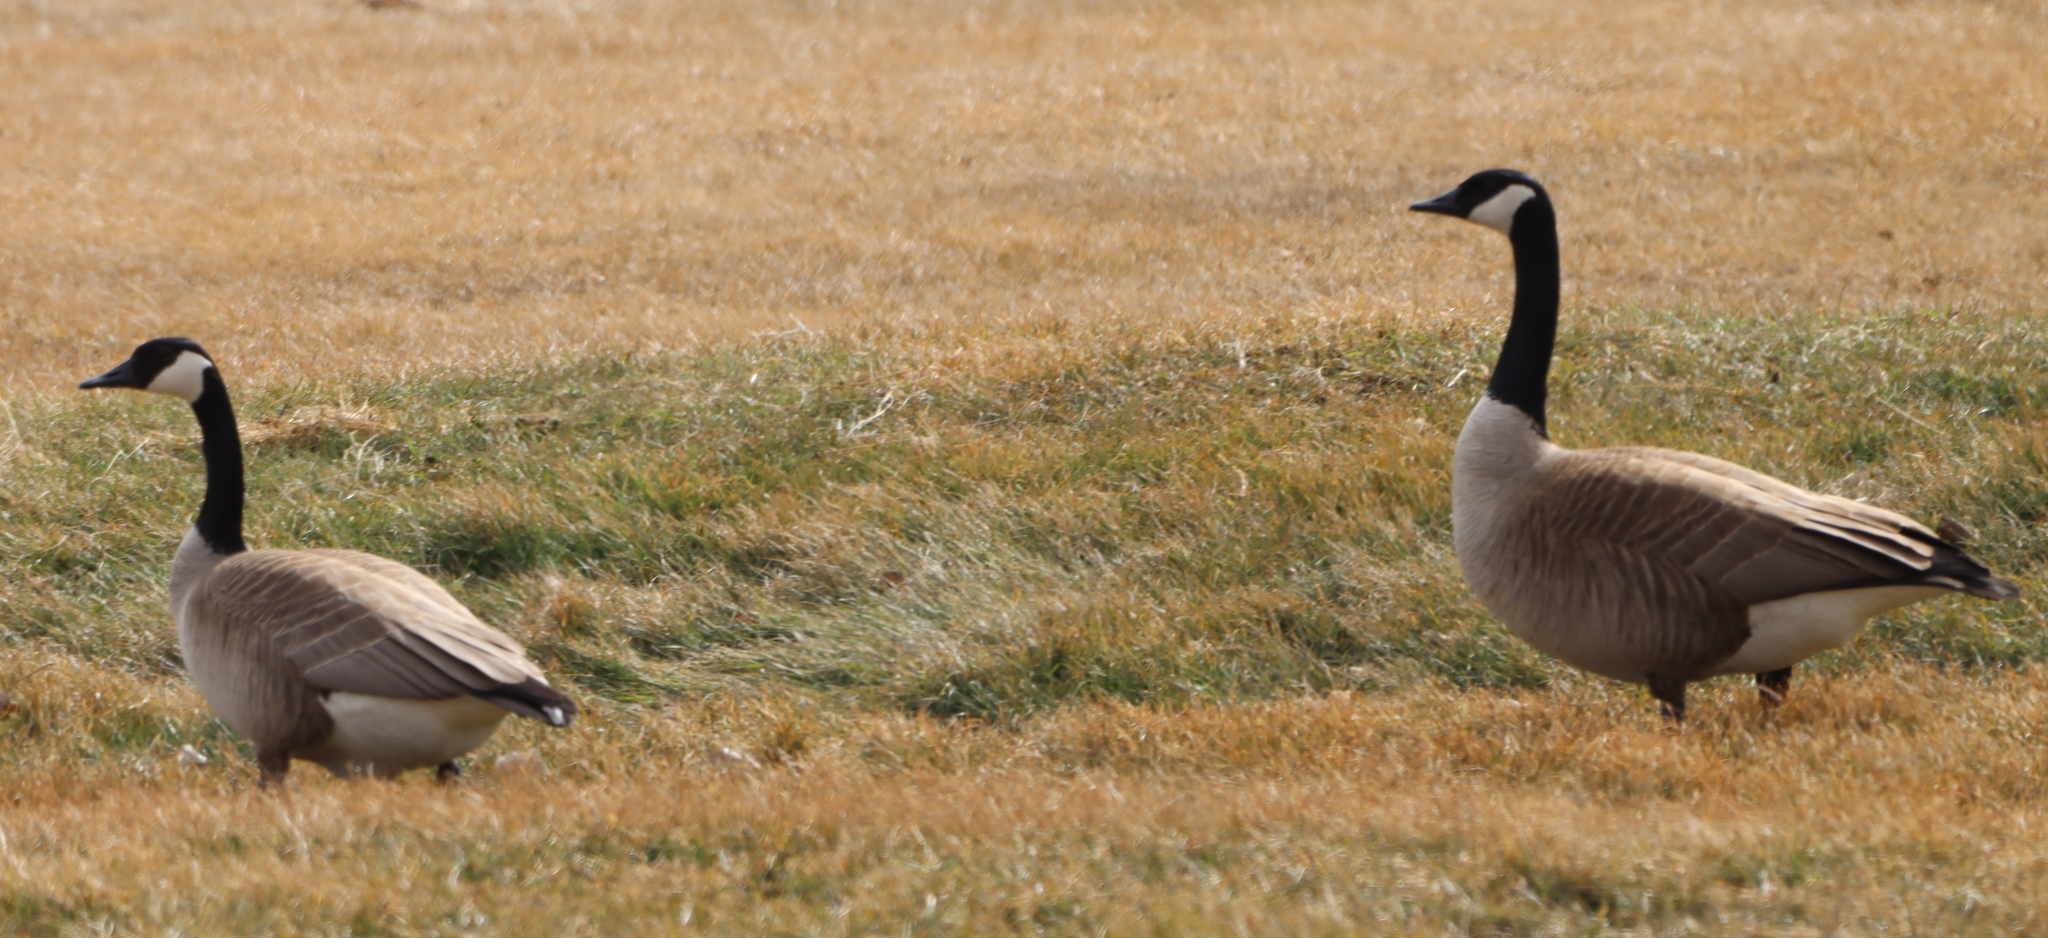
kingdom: Animalia
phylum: Chordata
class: Aves
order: Anseriformes
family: Anatidae
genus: Branta
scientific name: Branta canadensis
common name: Canada goose
